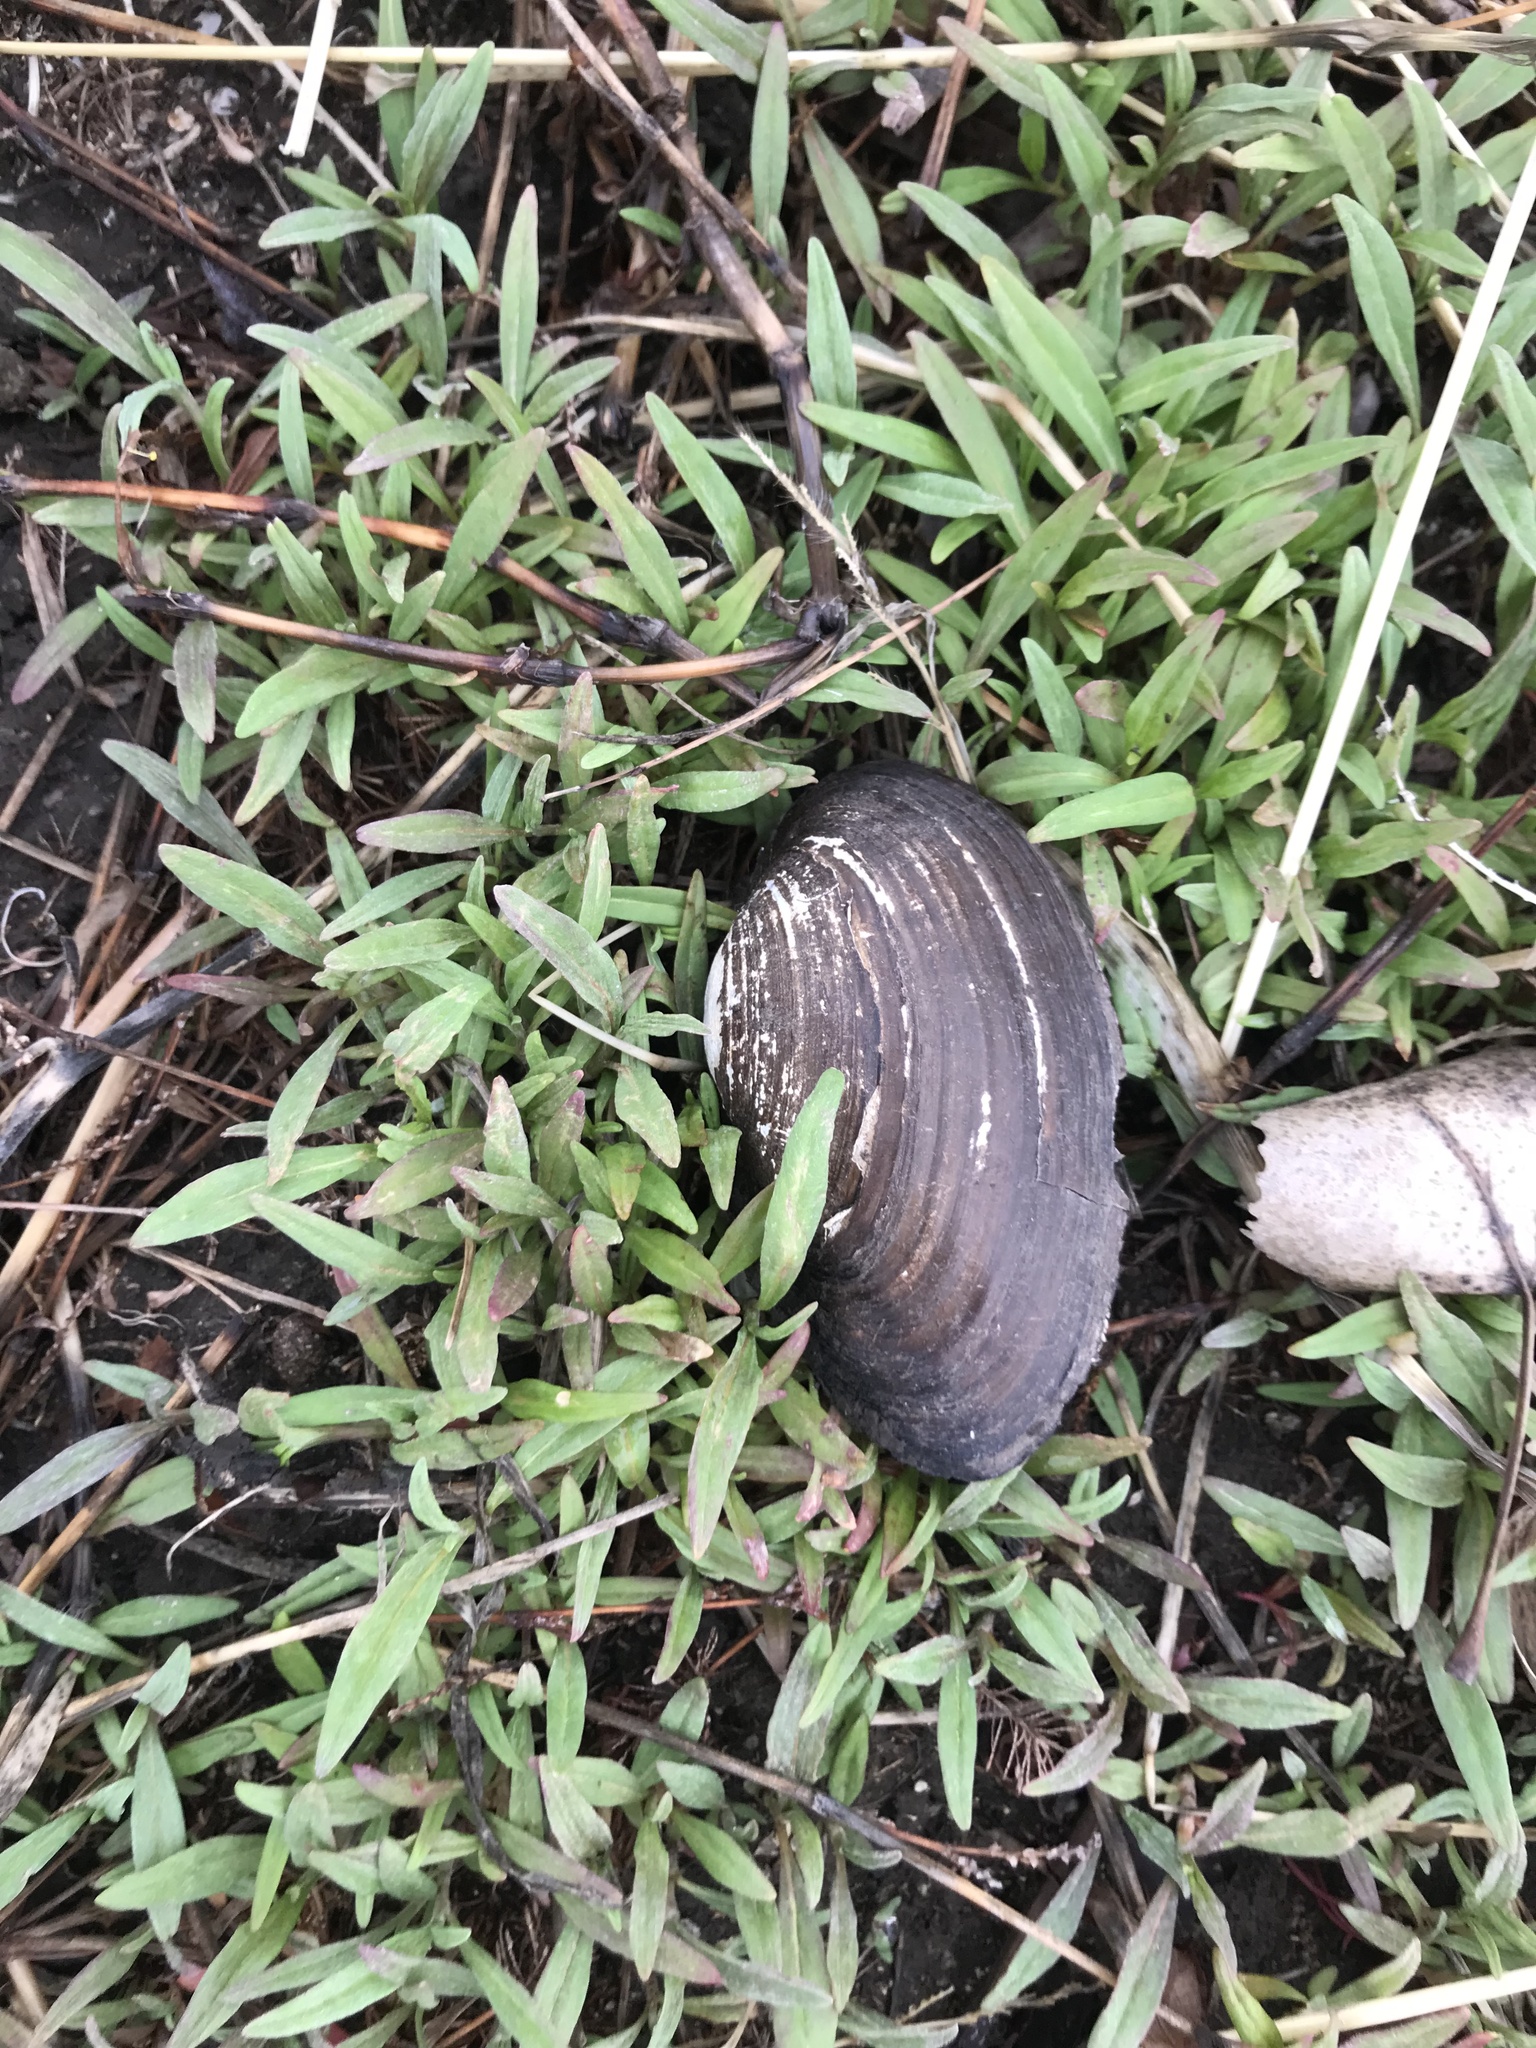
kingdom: Animalia
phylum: Mollusca
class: Bivalvia
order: Unionida
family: Unionidae
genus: Pyganodon
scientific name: Pyganodon grandis
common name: Giant floater
